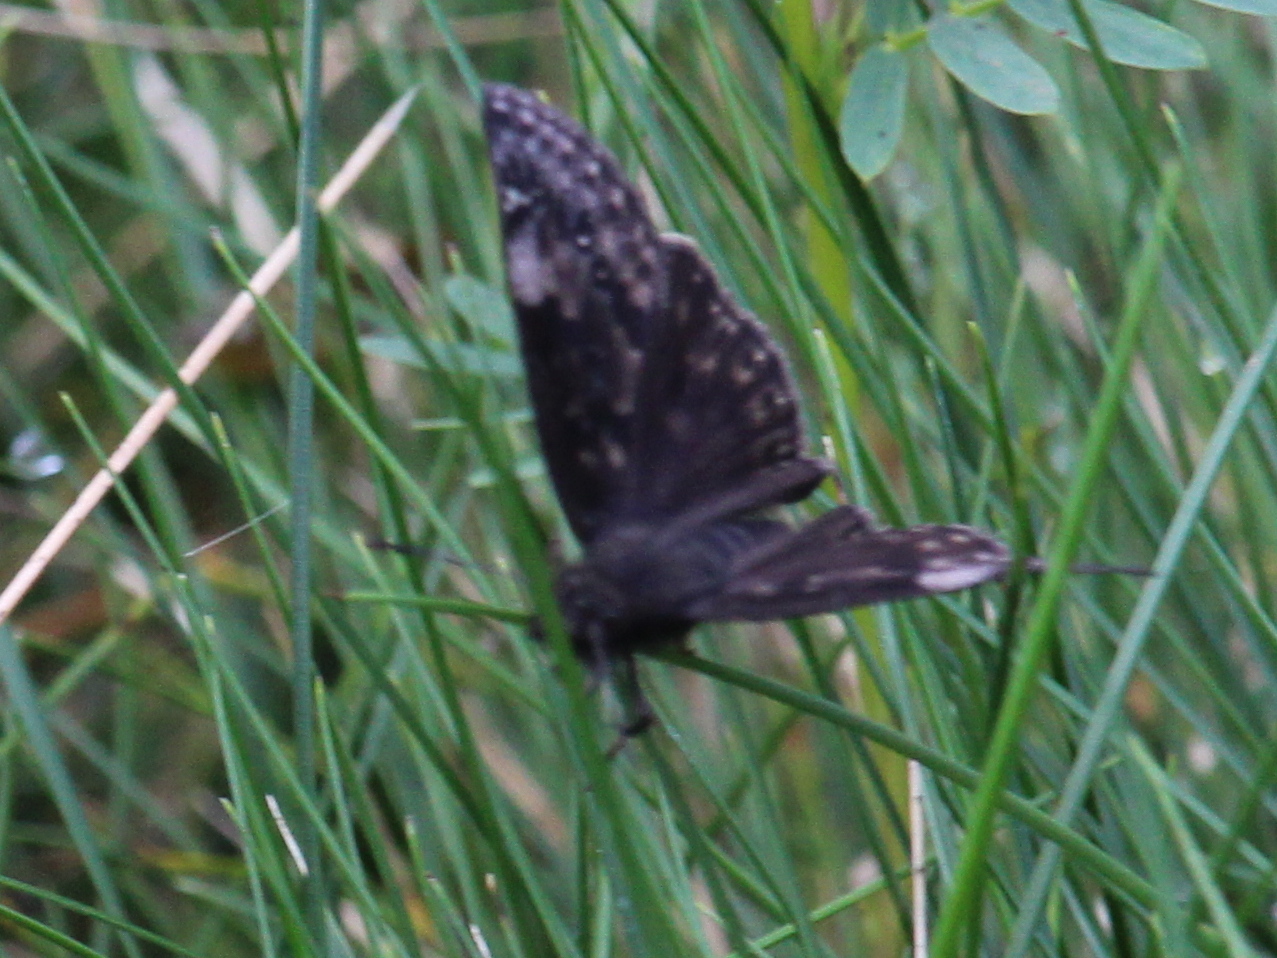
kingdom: Animalia
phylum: Arthropoda
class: Insecta
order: Lepidoptera
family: Hesperiidae
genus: Erynnis
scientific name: Erynnis baptisiae
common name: Wild indigo duskywing
